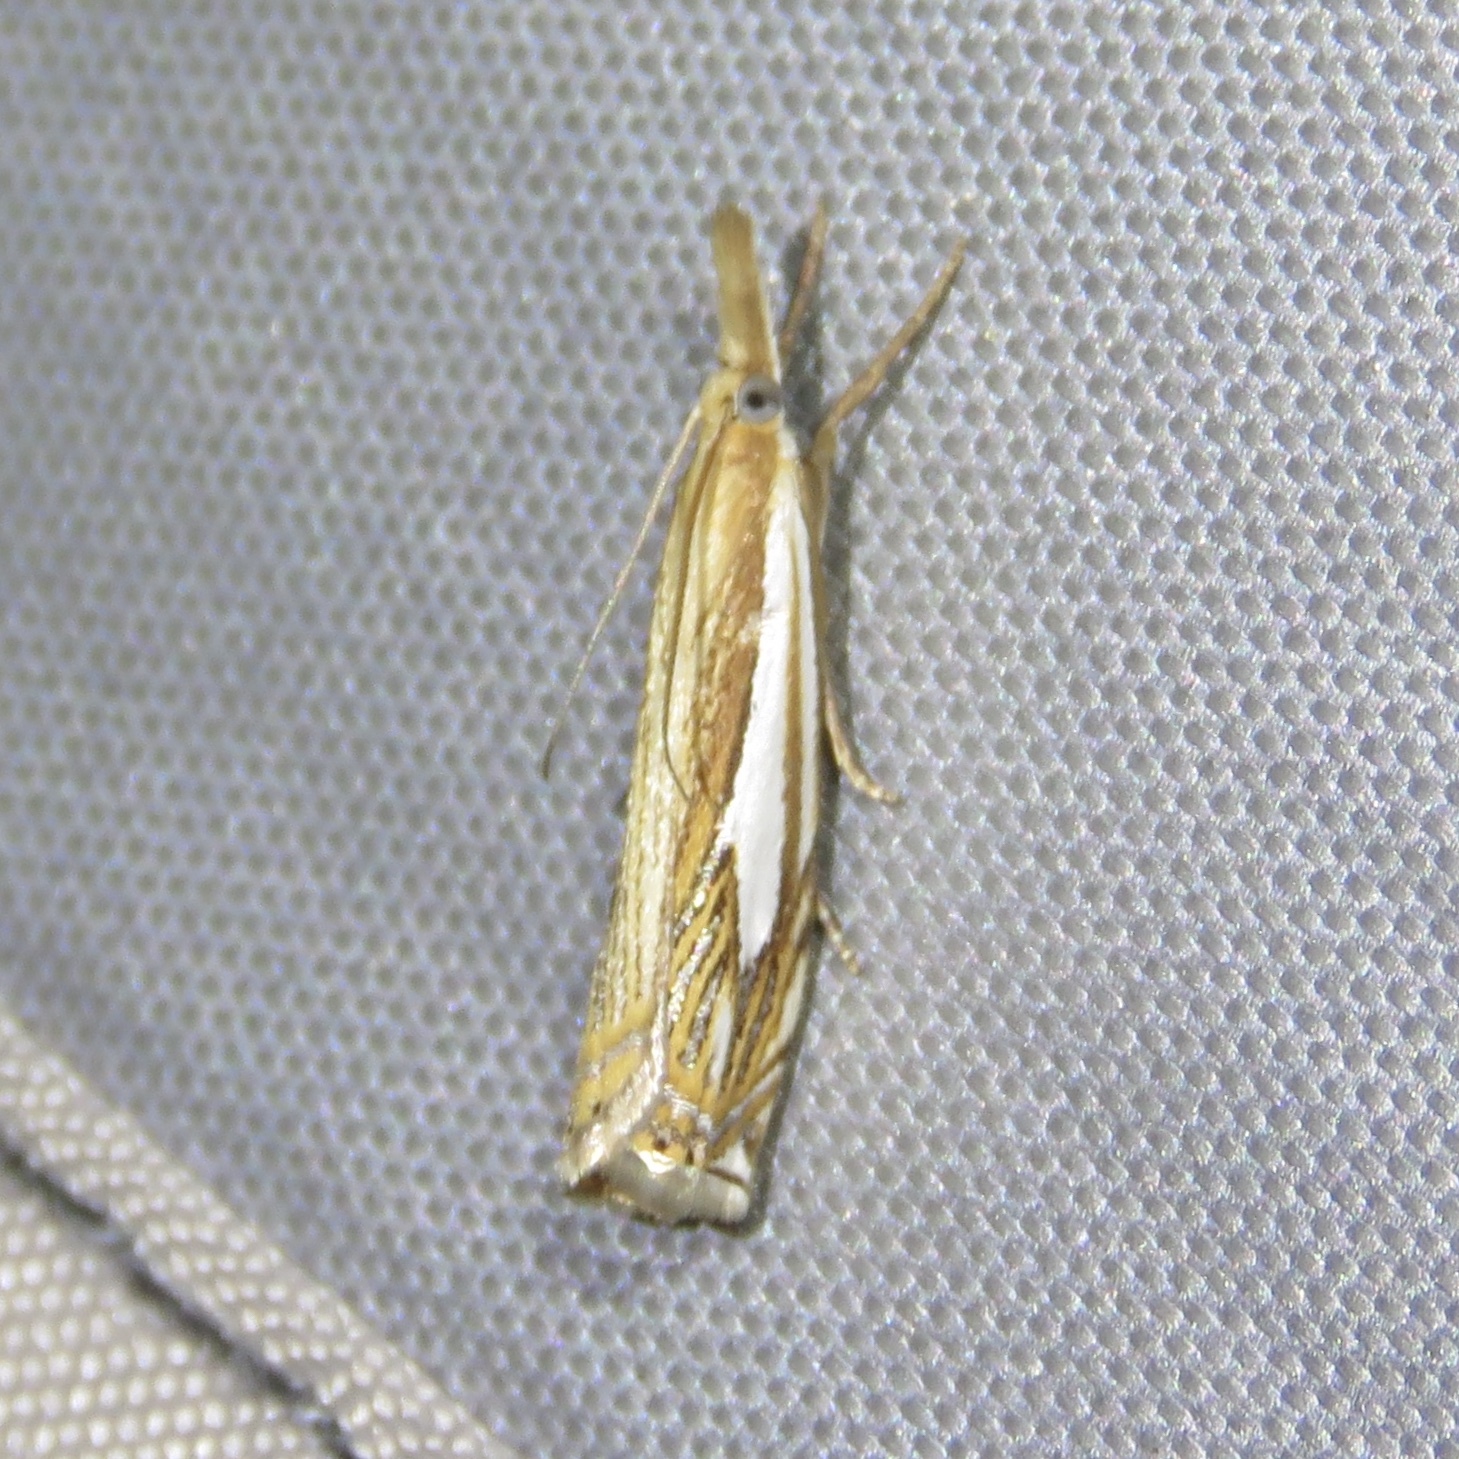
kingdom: Animalia
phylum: Arthropoda
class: Insecta
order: Lepidoptera
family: Crambidae
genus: Crambus
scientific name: Crambus saltuellus
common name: Pasture grass-veneer
